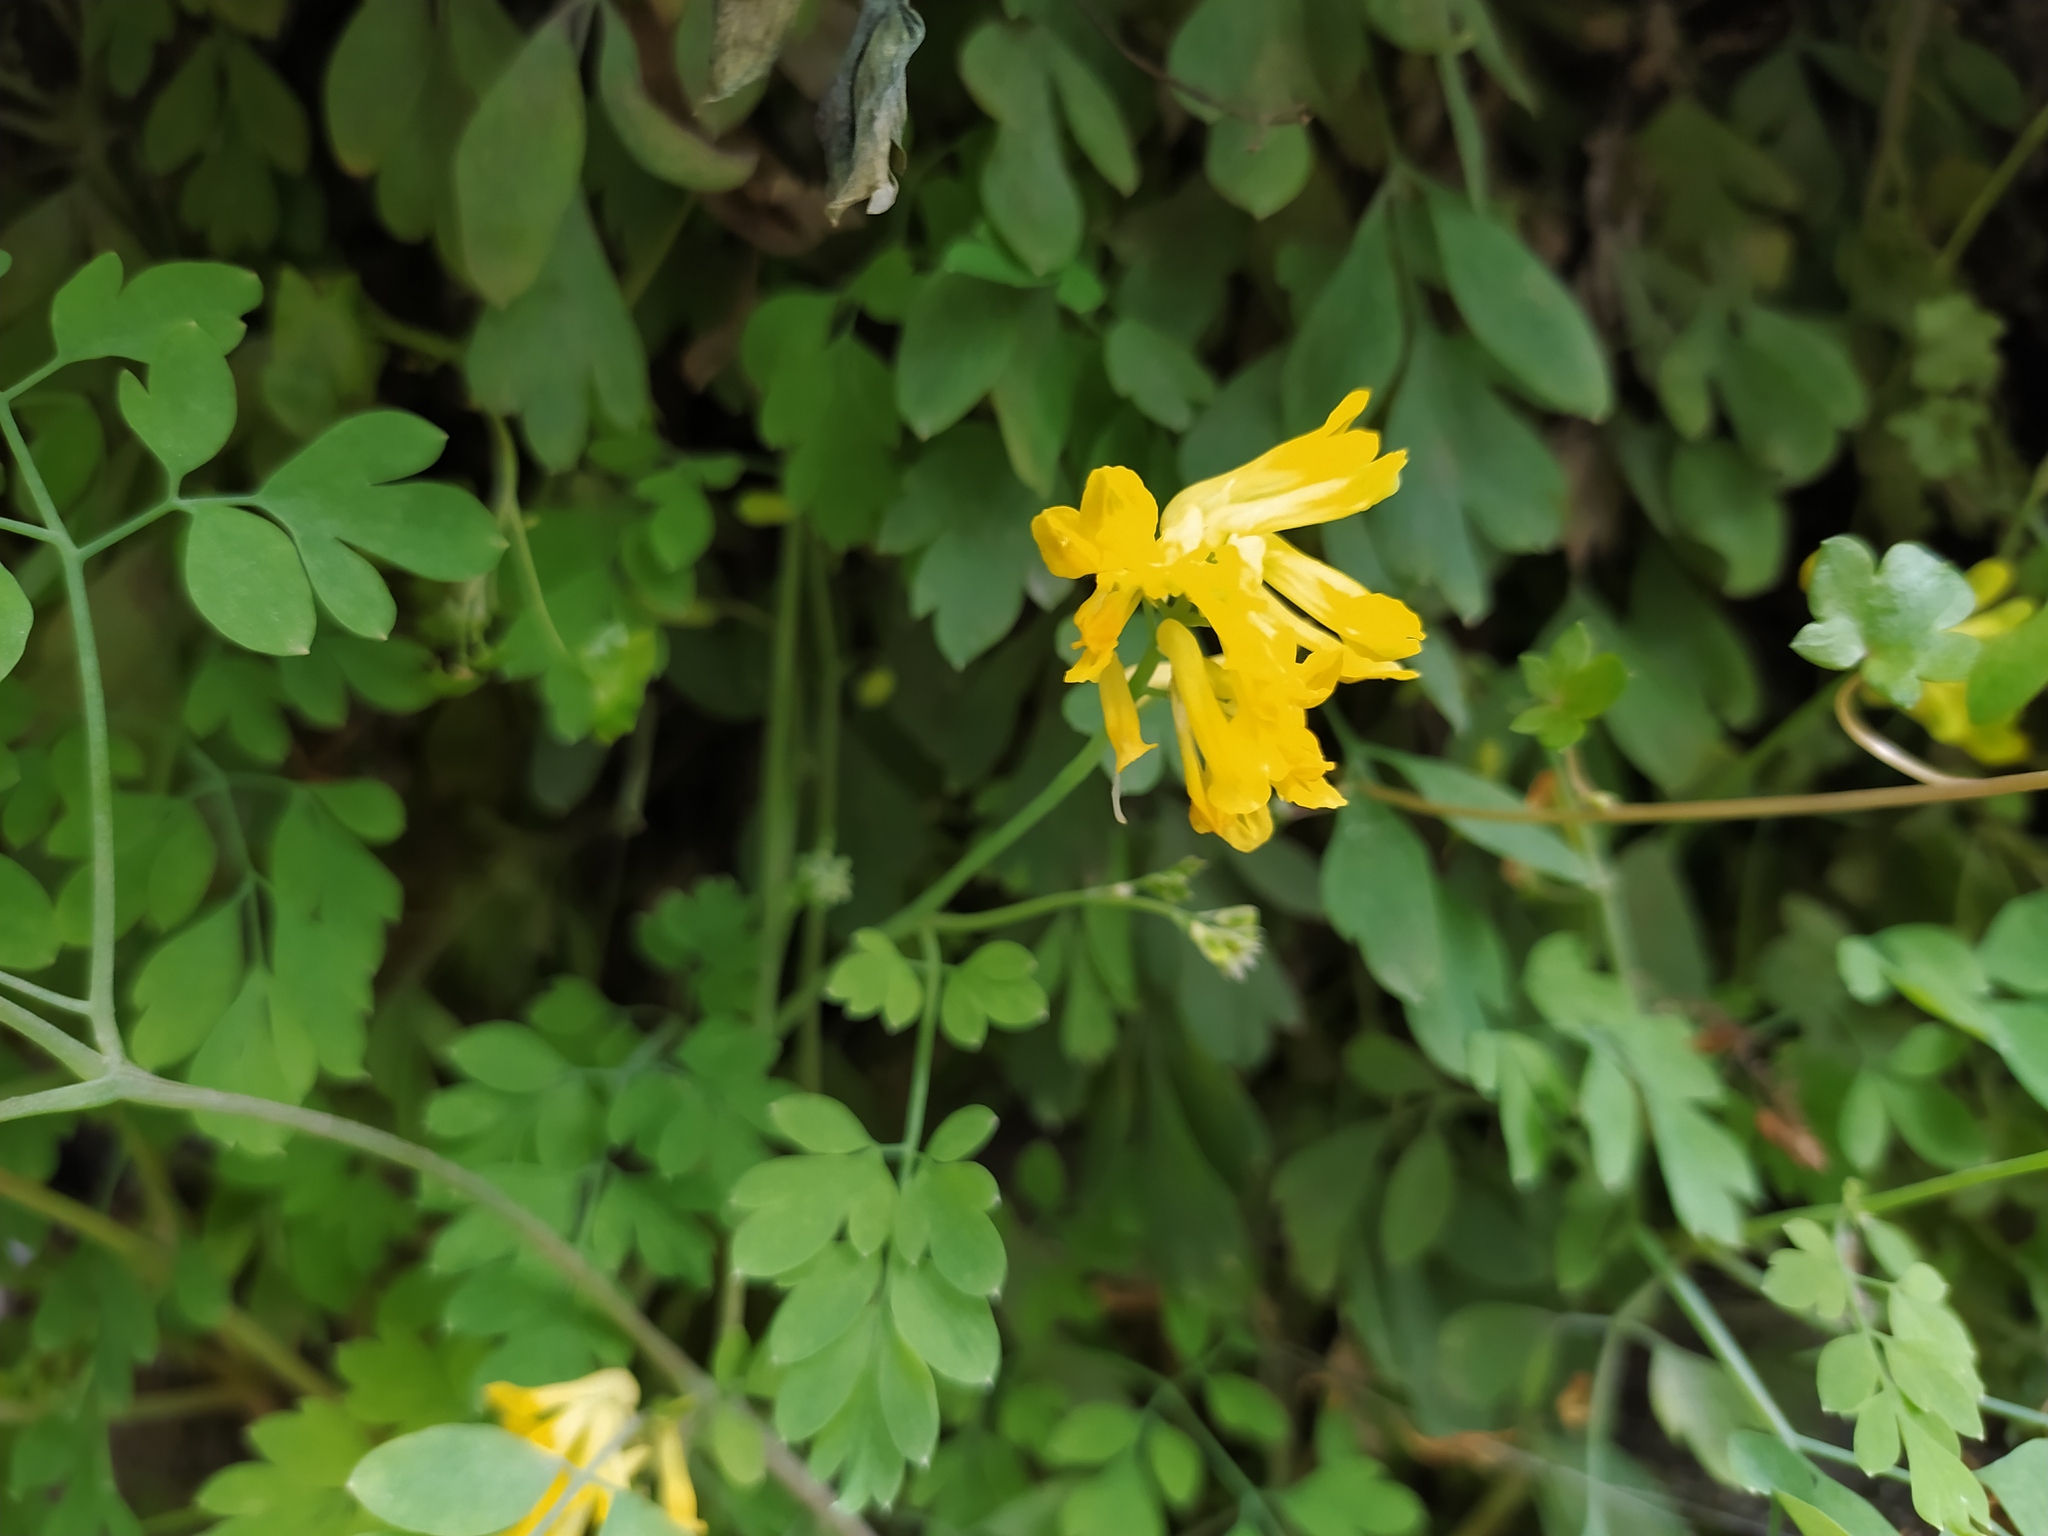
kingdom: Plantae
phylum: Tracheophyta
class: Magnoliopsida
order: Ranunculales
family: Papaveraceae
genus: Pseudofumaria
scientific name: Pseudofumaria lutea
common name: Yellow corydalis
